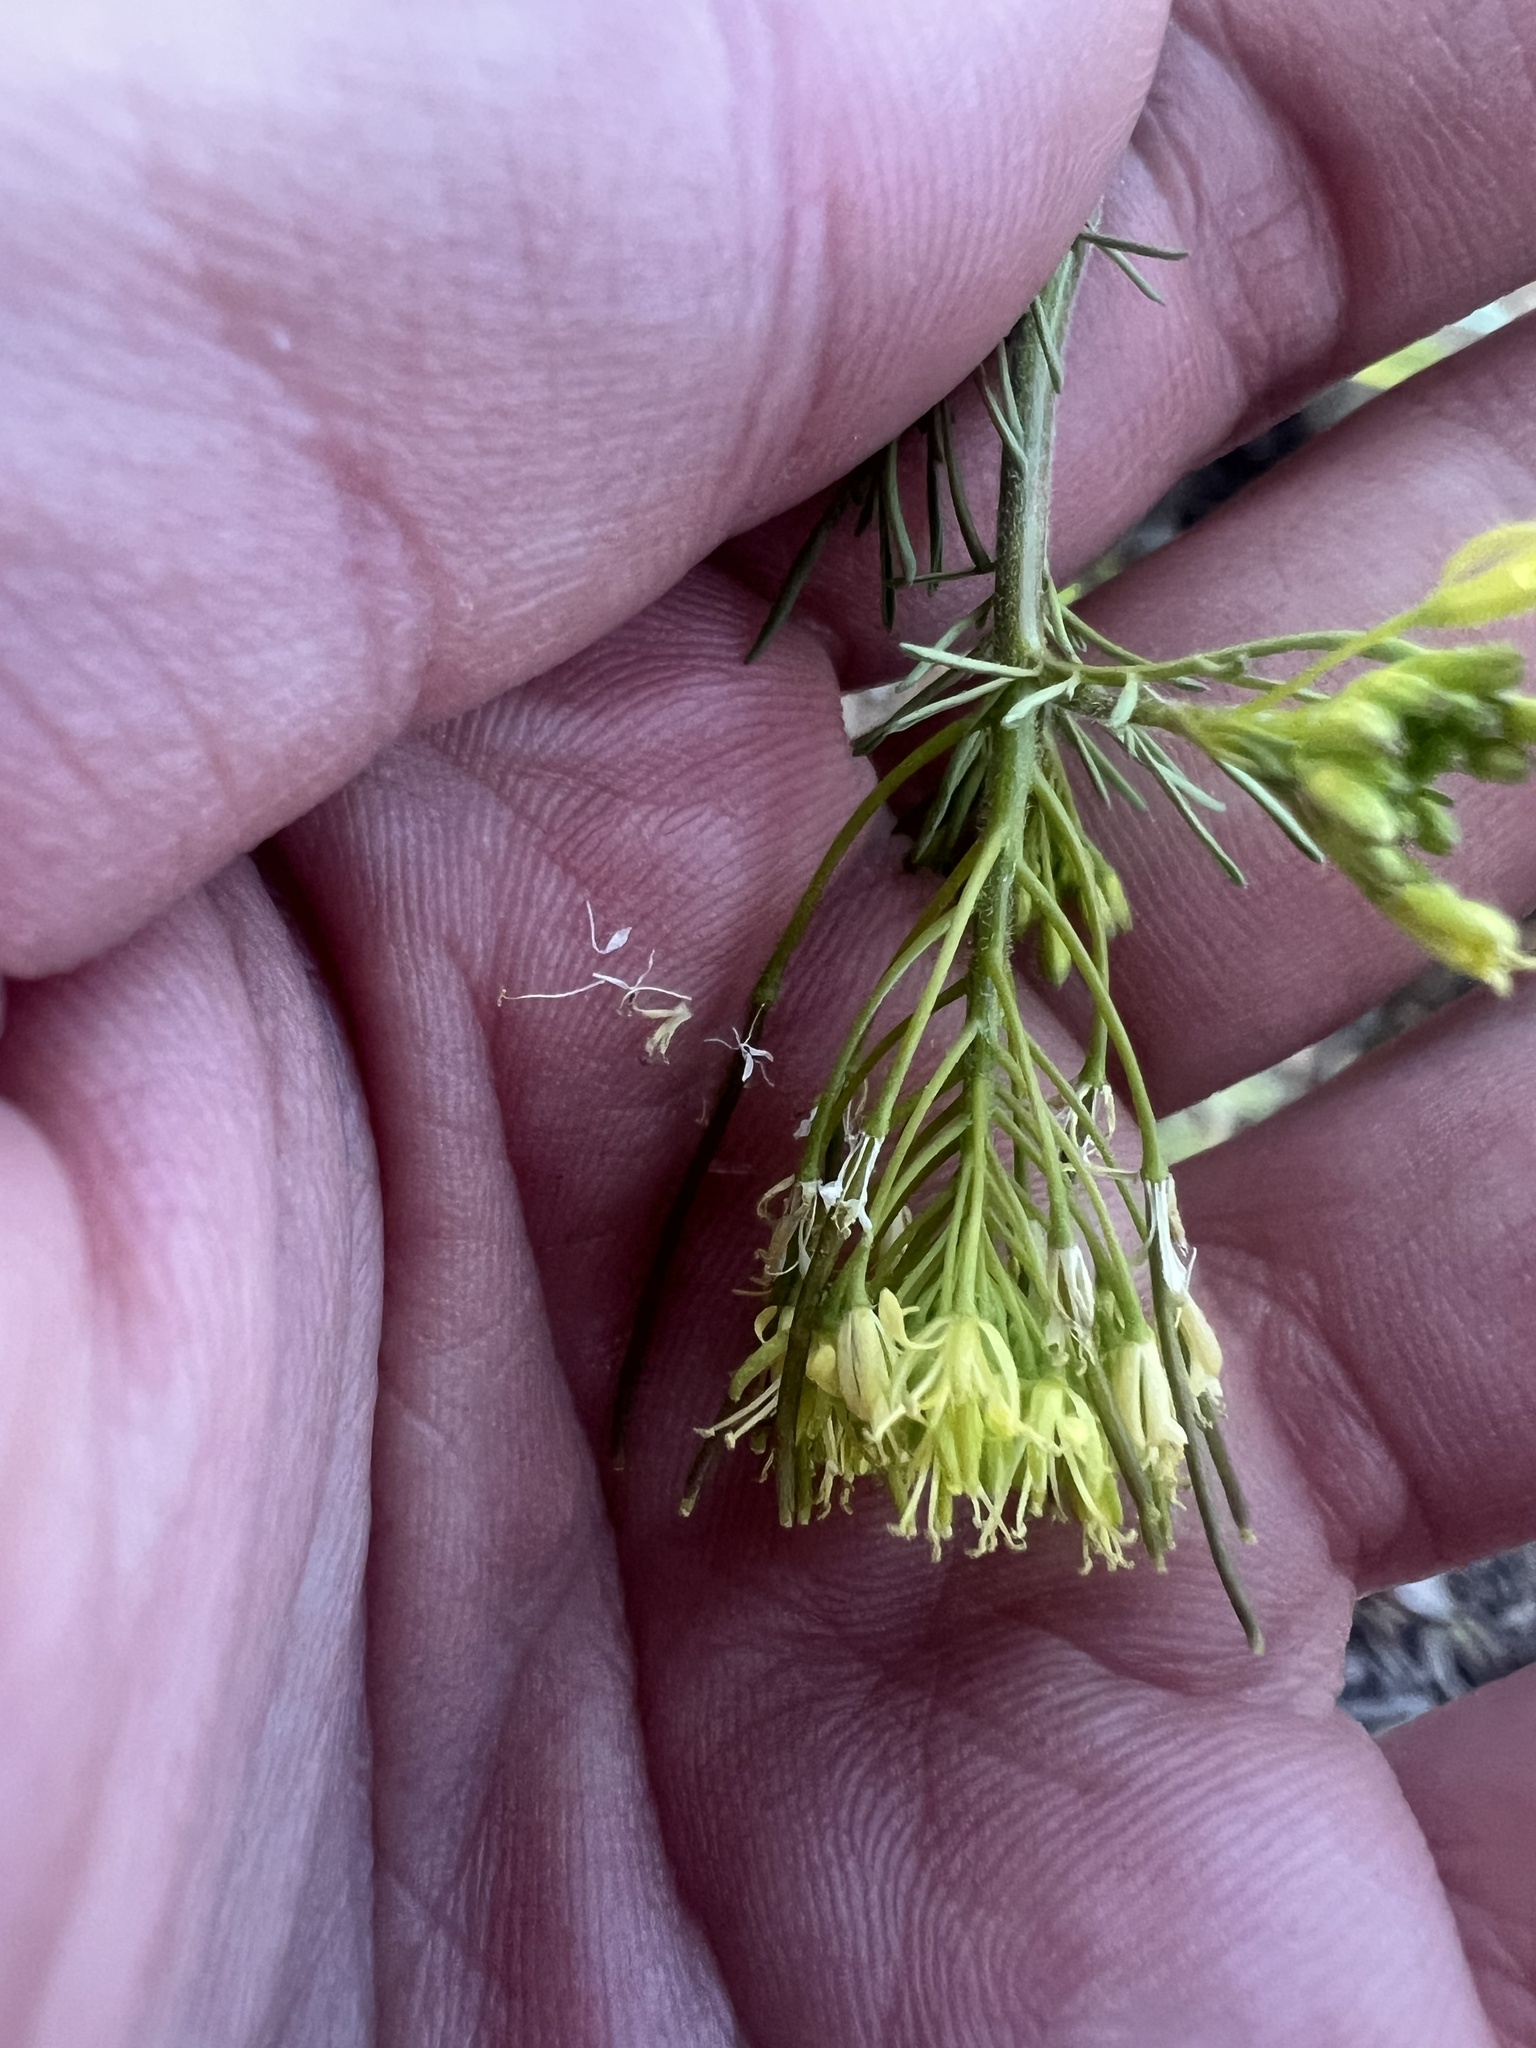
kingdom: Plantae
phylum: Tracheophyta
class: Magnoliopsida
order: Brassicales
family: Brassicaceae
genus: Descurainia
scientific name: Descurainia sophia
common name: Flixweed
